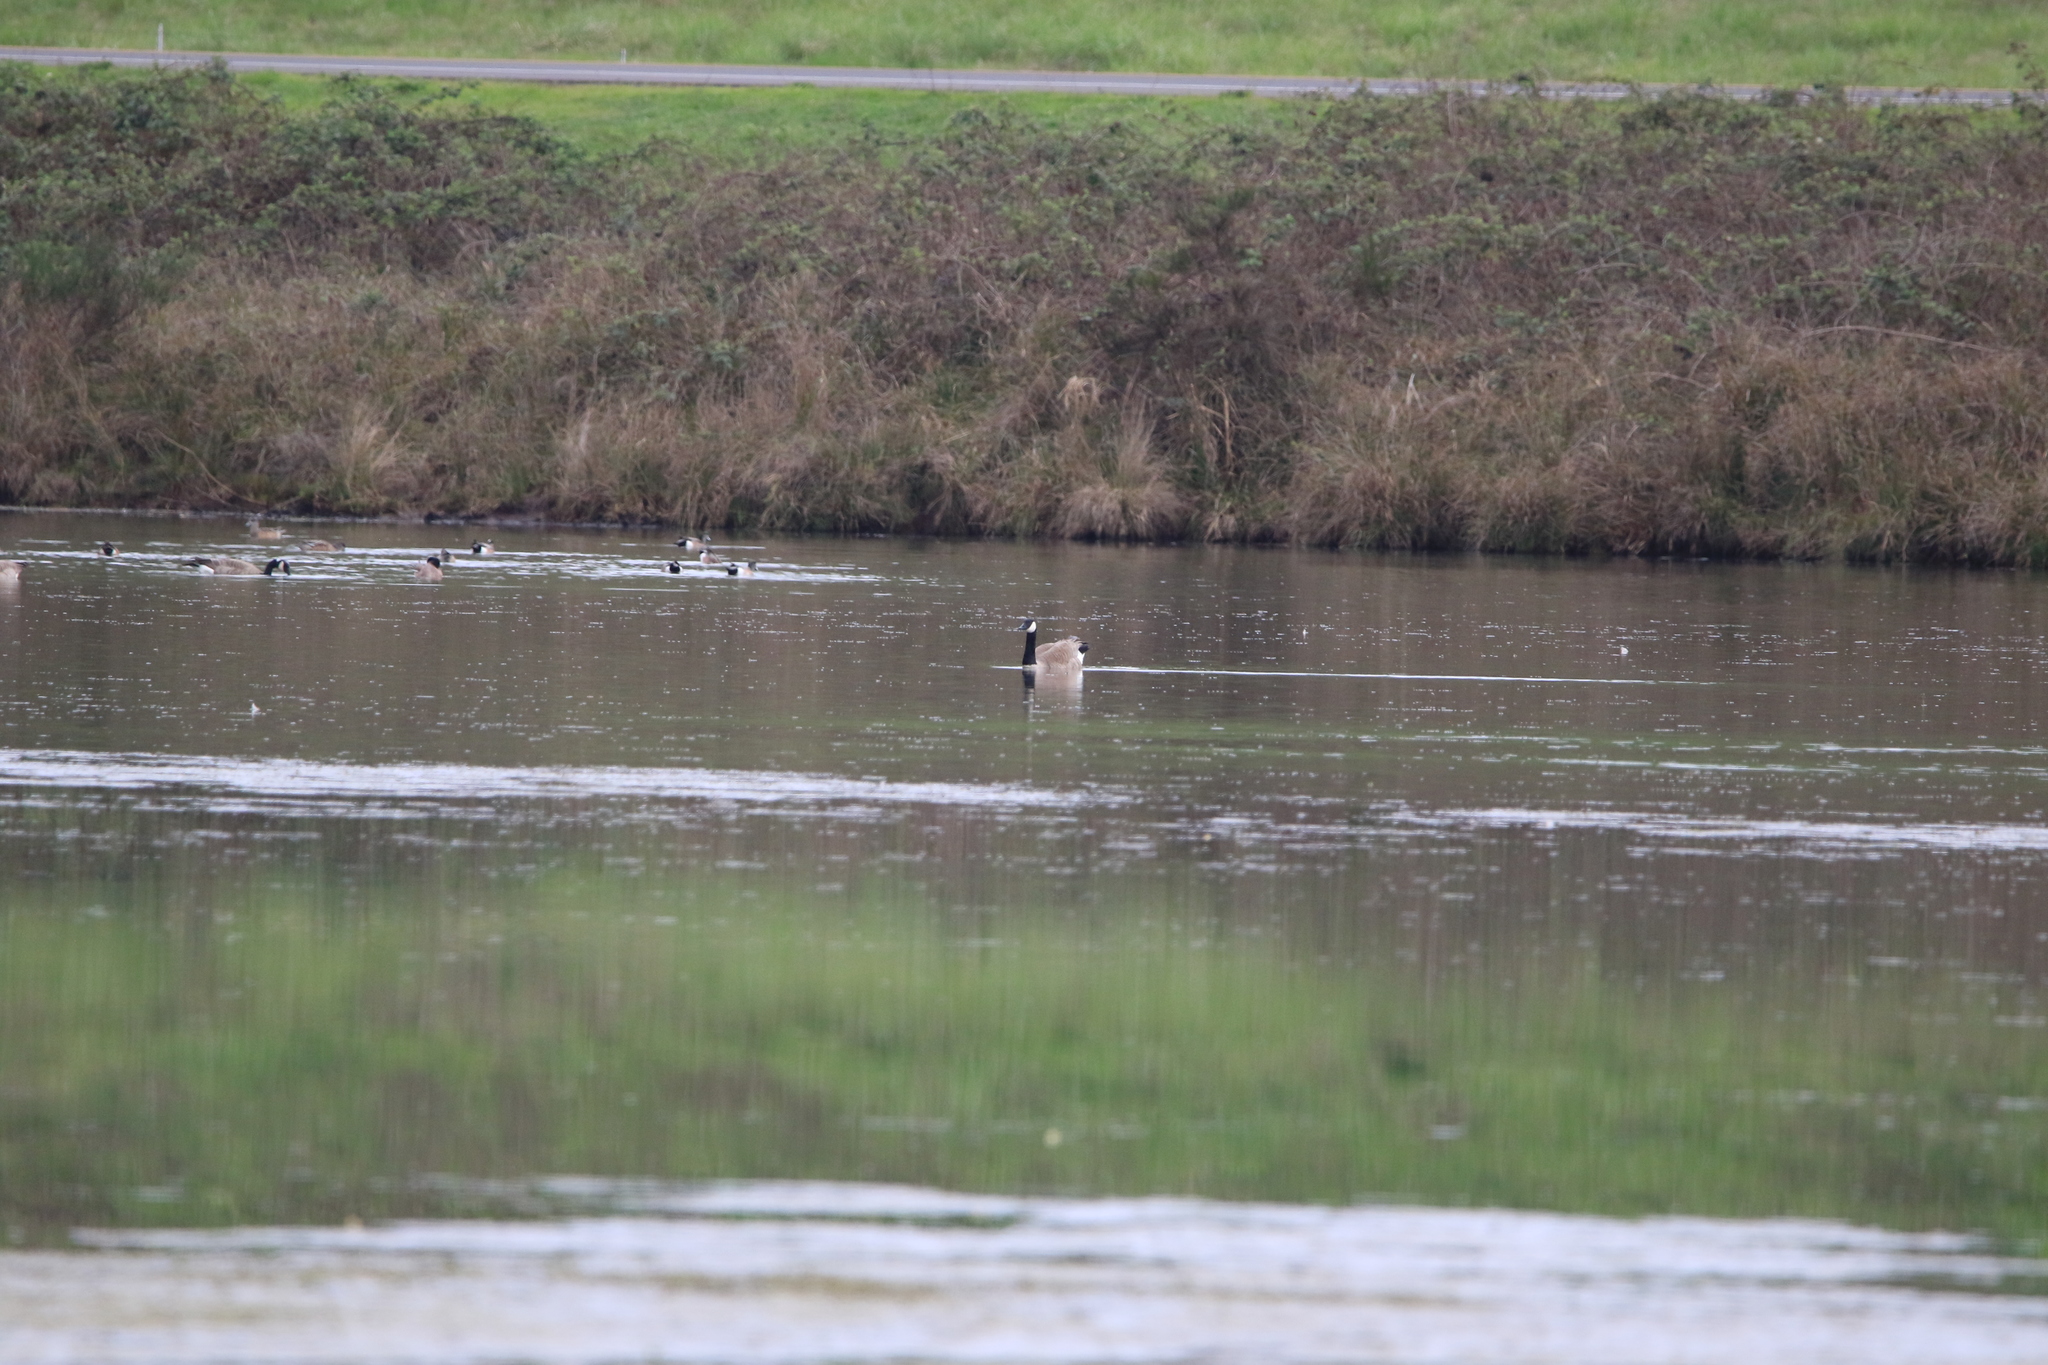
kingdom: Animalia
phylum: Chordata
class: Aves
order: Anseriformes
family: Anatidae
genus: Branta
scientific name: Branta canadensis
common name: Canada goose
